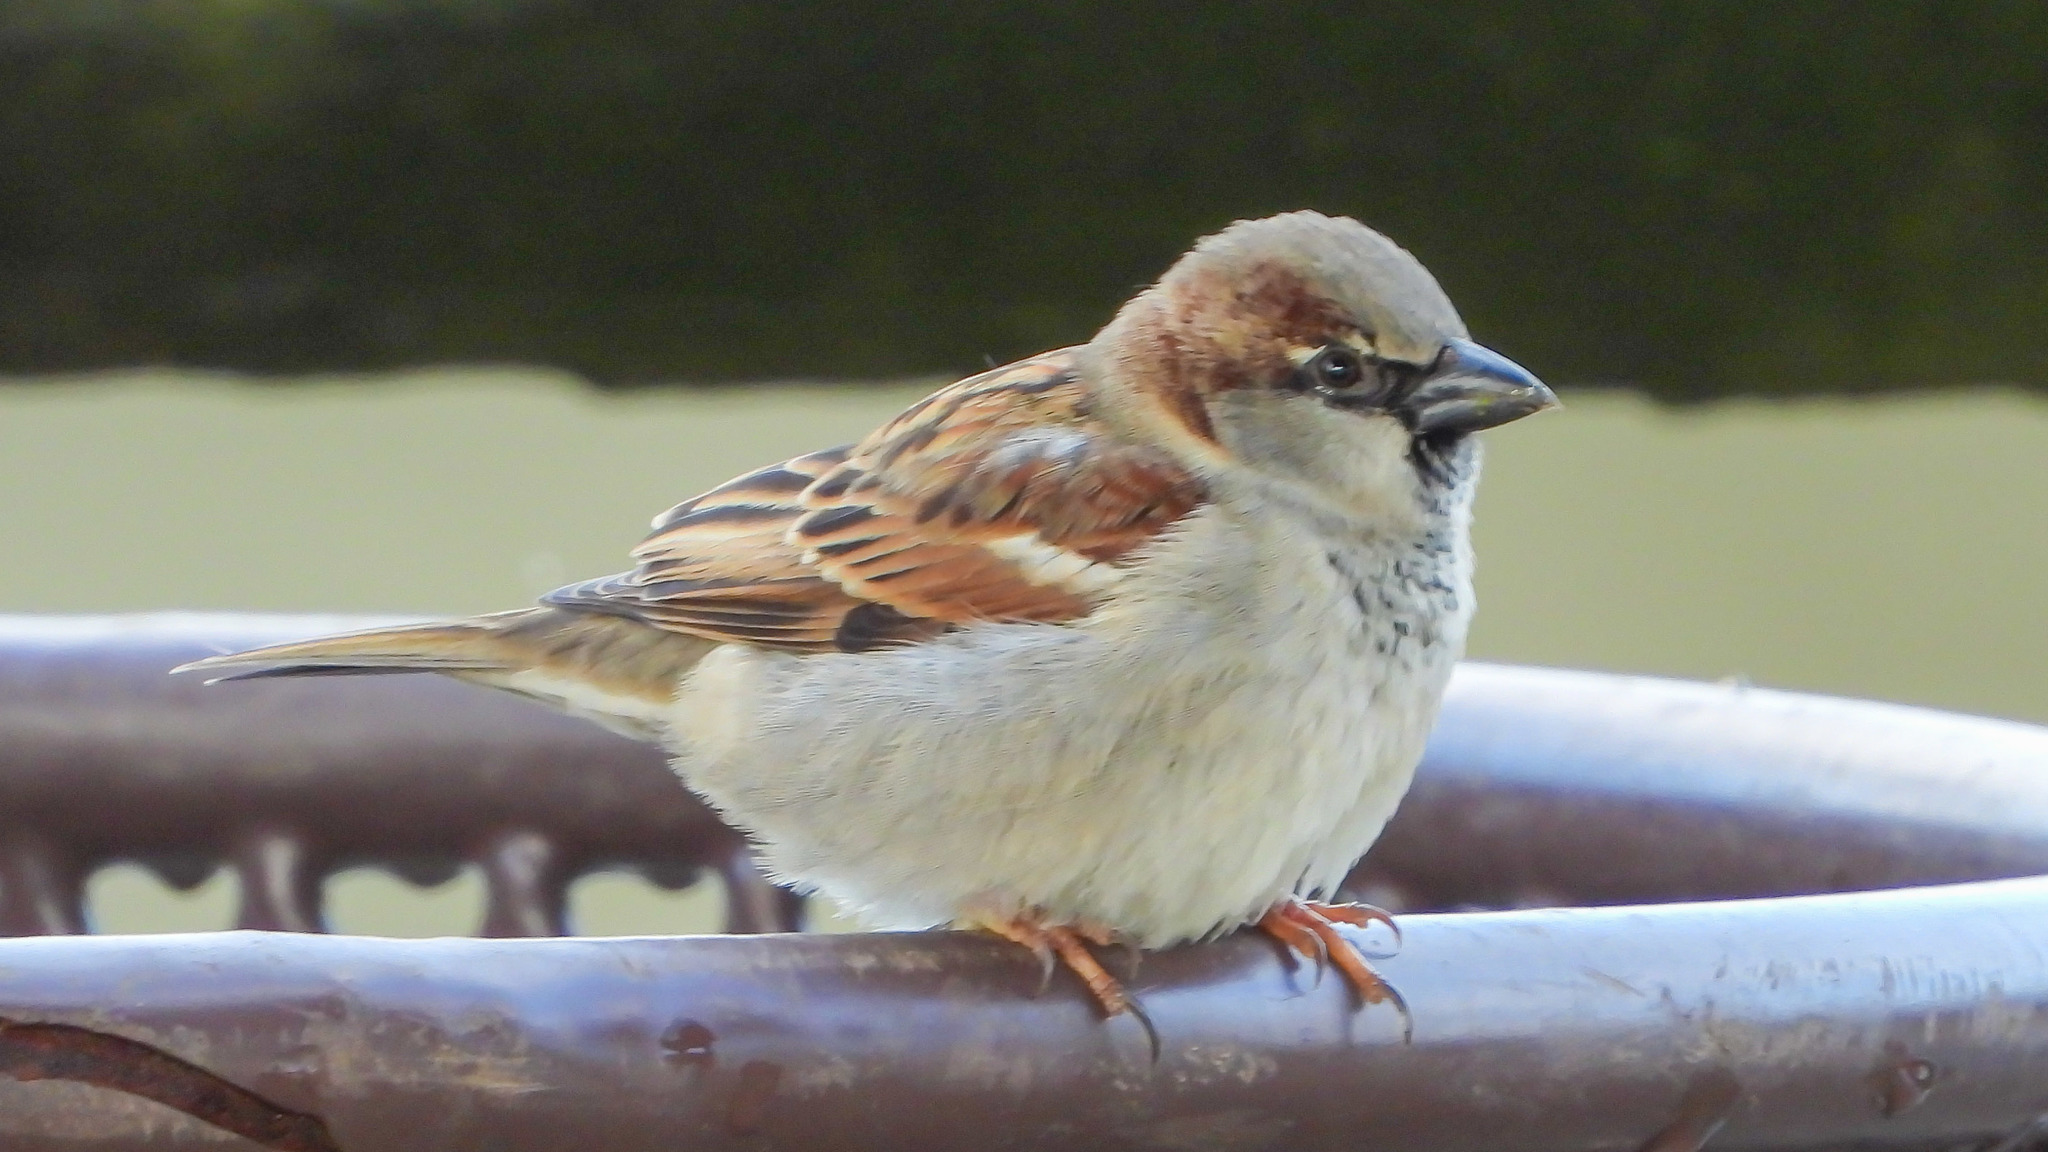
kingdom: Animalia
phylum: Chordata
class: Aves
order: Passeriformes
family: Passeridae
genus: Passer
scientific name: Passer domesticus
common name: House sparrow
